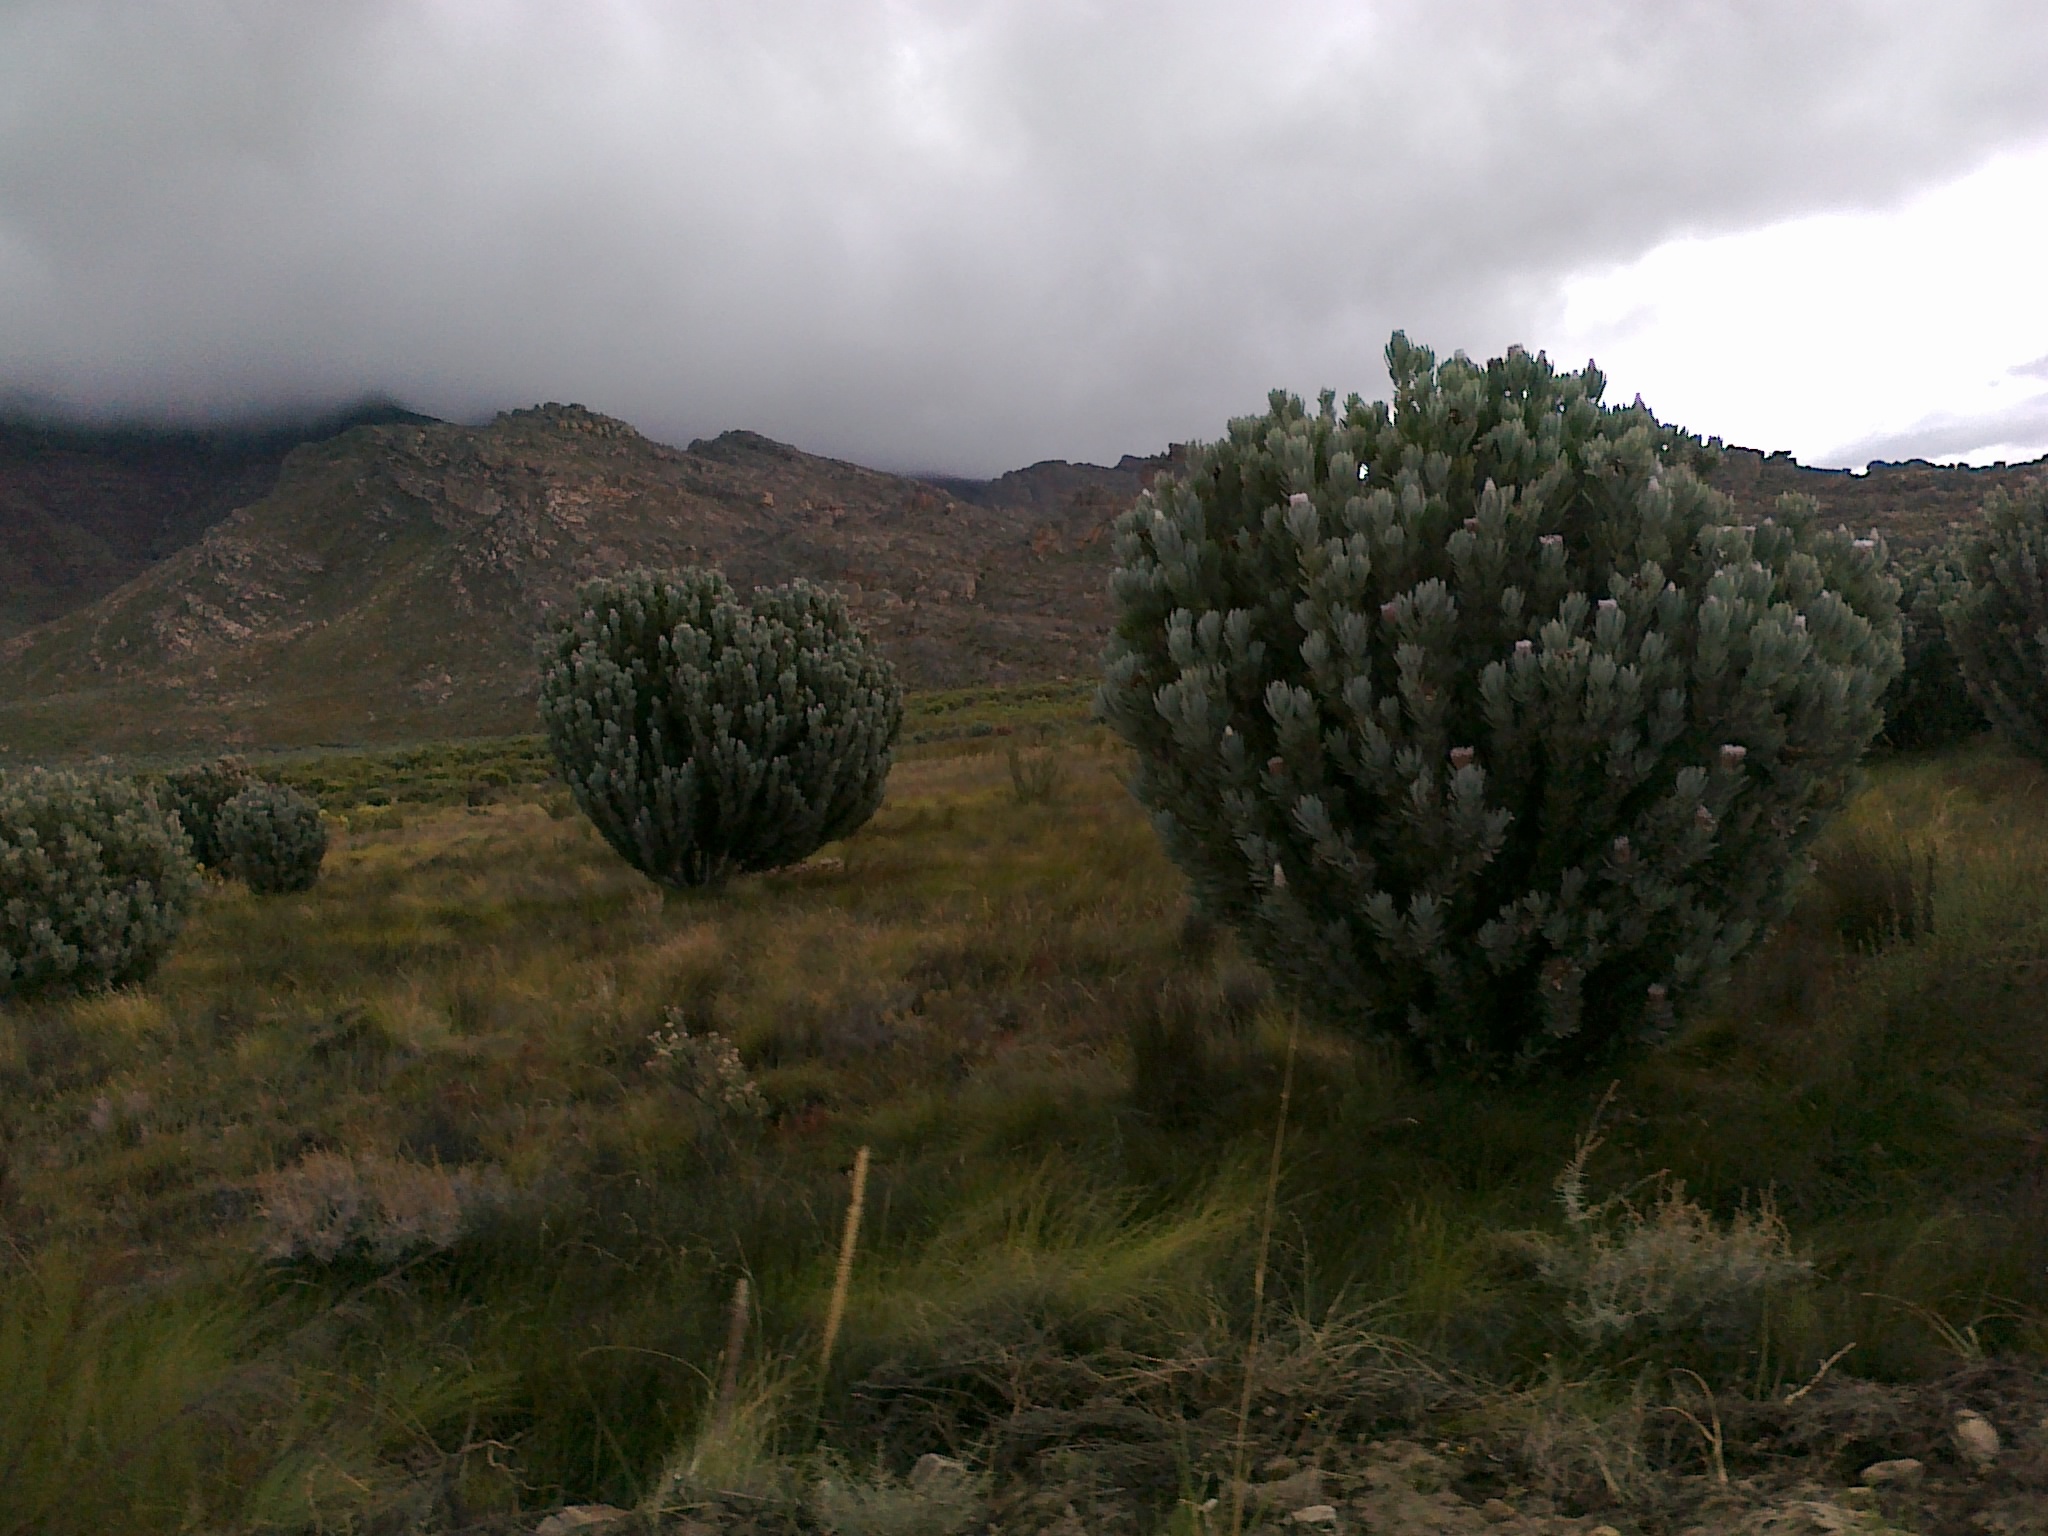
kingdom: Plantae
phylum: Tracheophyta
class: Magnoliopsida
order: Proteales
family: Proteaceae
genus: Protea
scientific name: Protea laurifolia
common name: Grey-leaf sugarbsh
